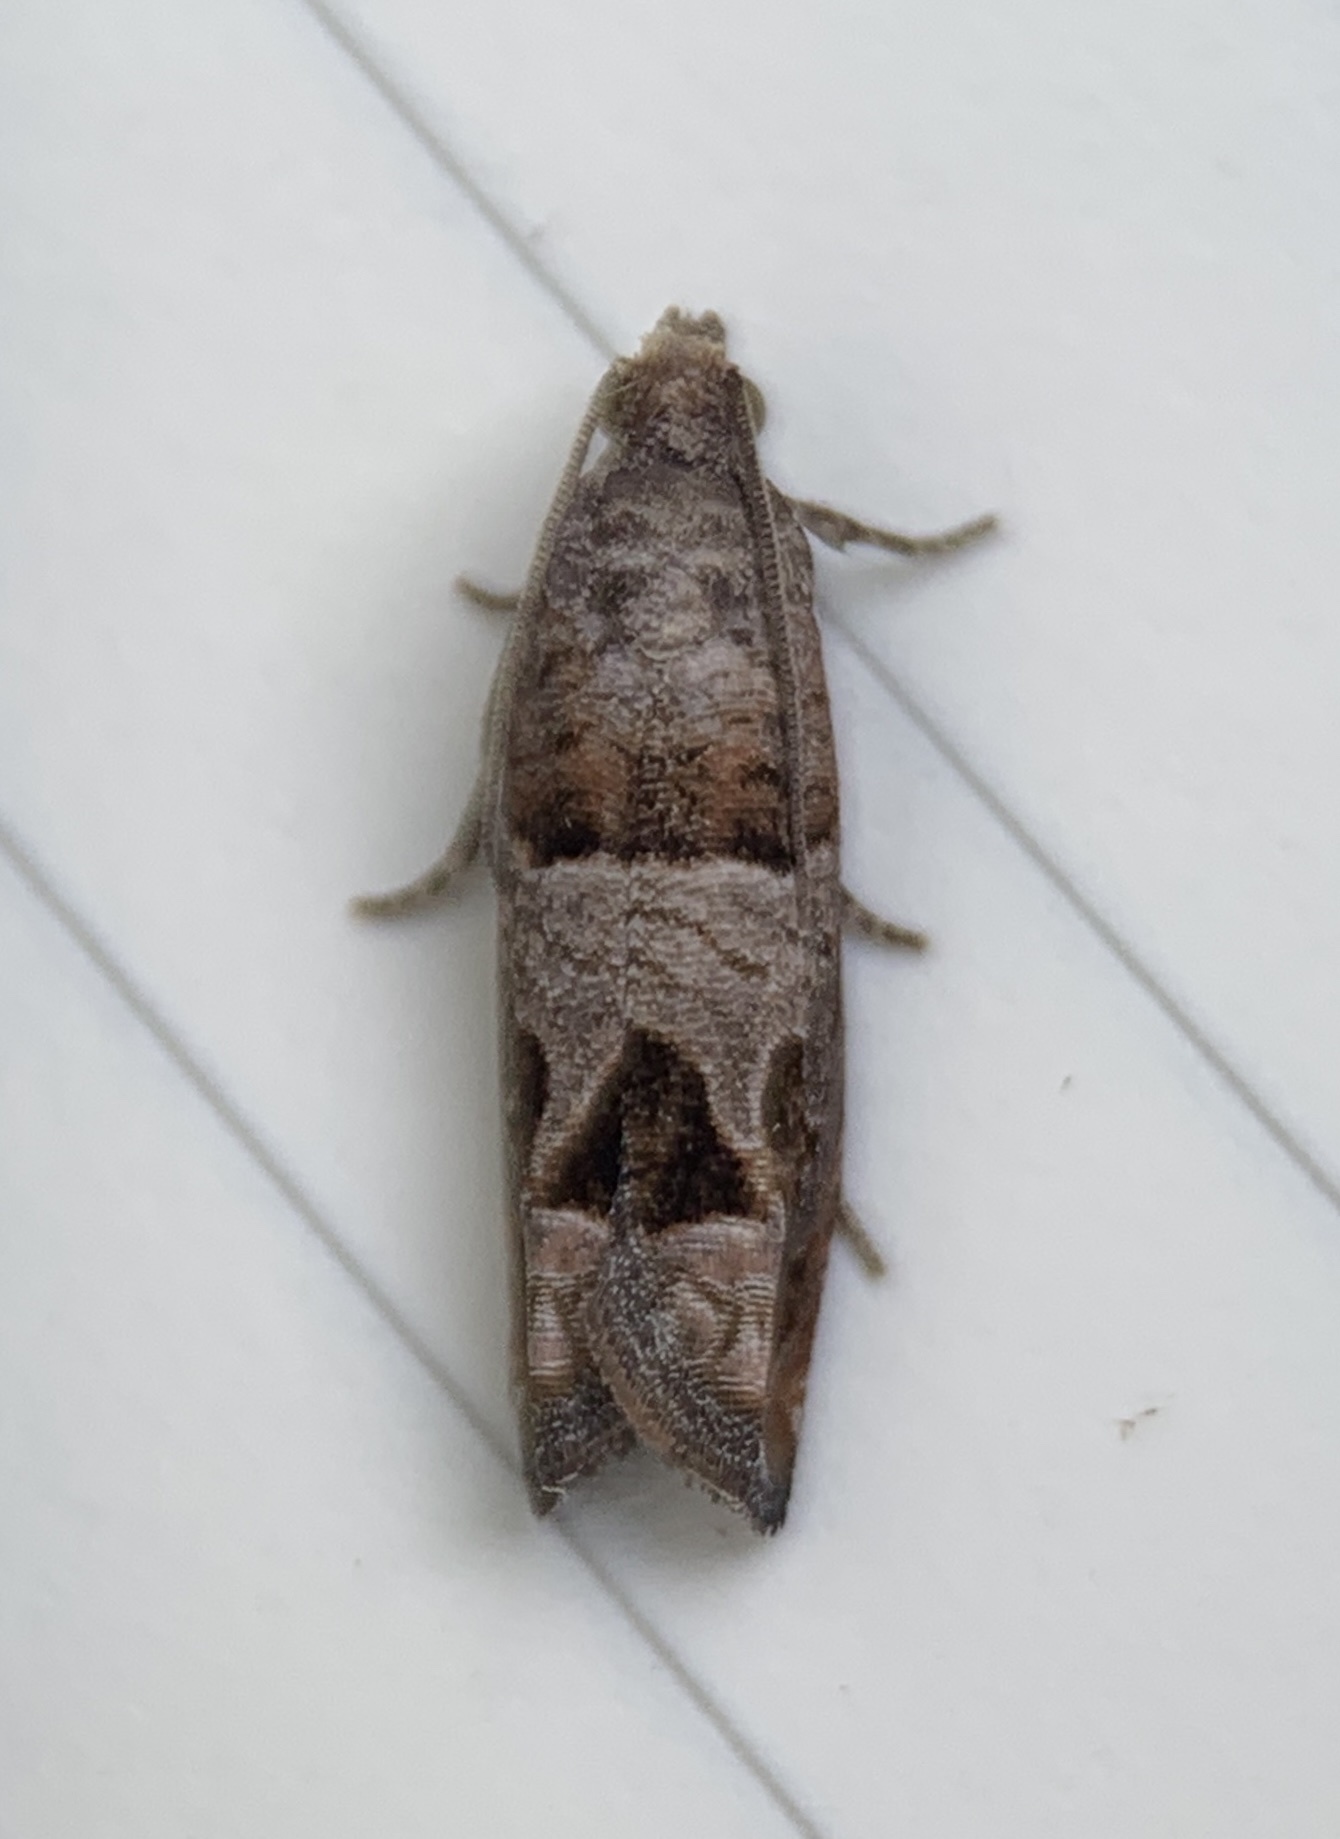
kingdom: Animalia
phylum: Arthropoda
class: Insecta
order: Lepidoptera
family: Tortricidae
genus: Sonia
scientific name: Sonia paraplesiana
